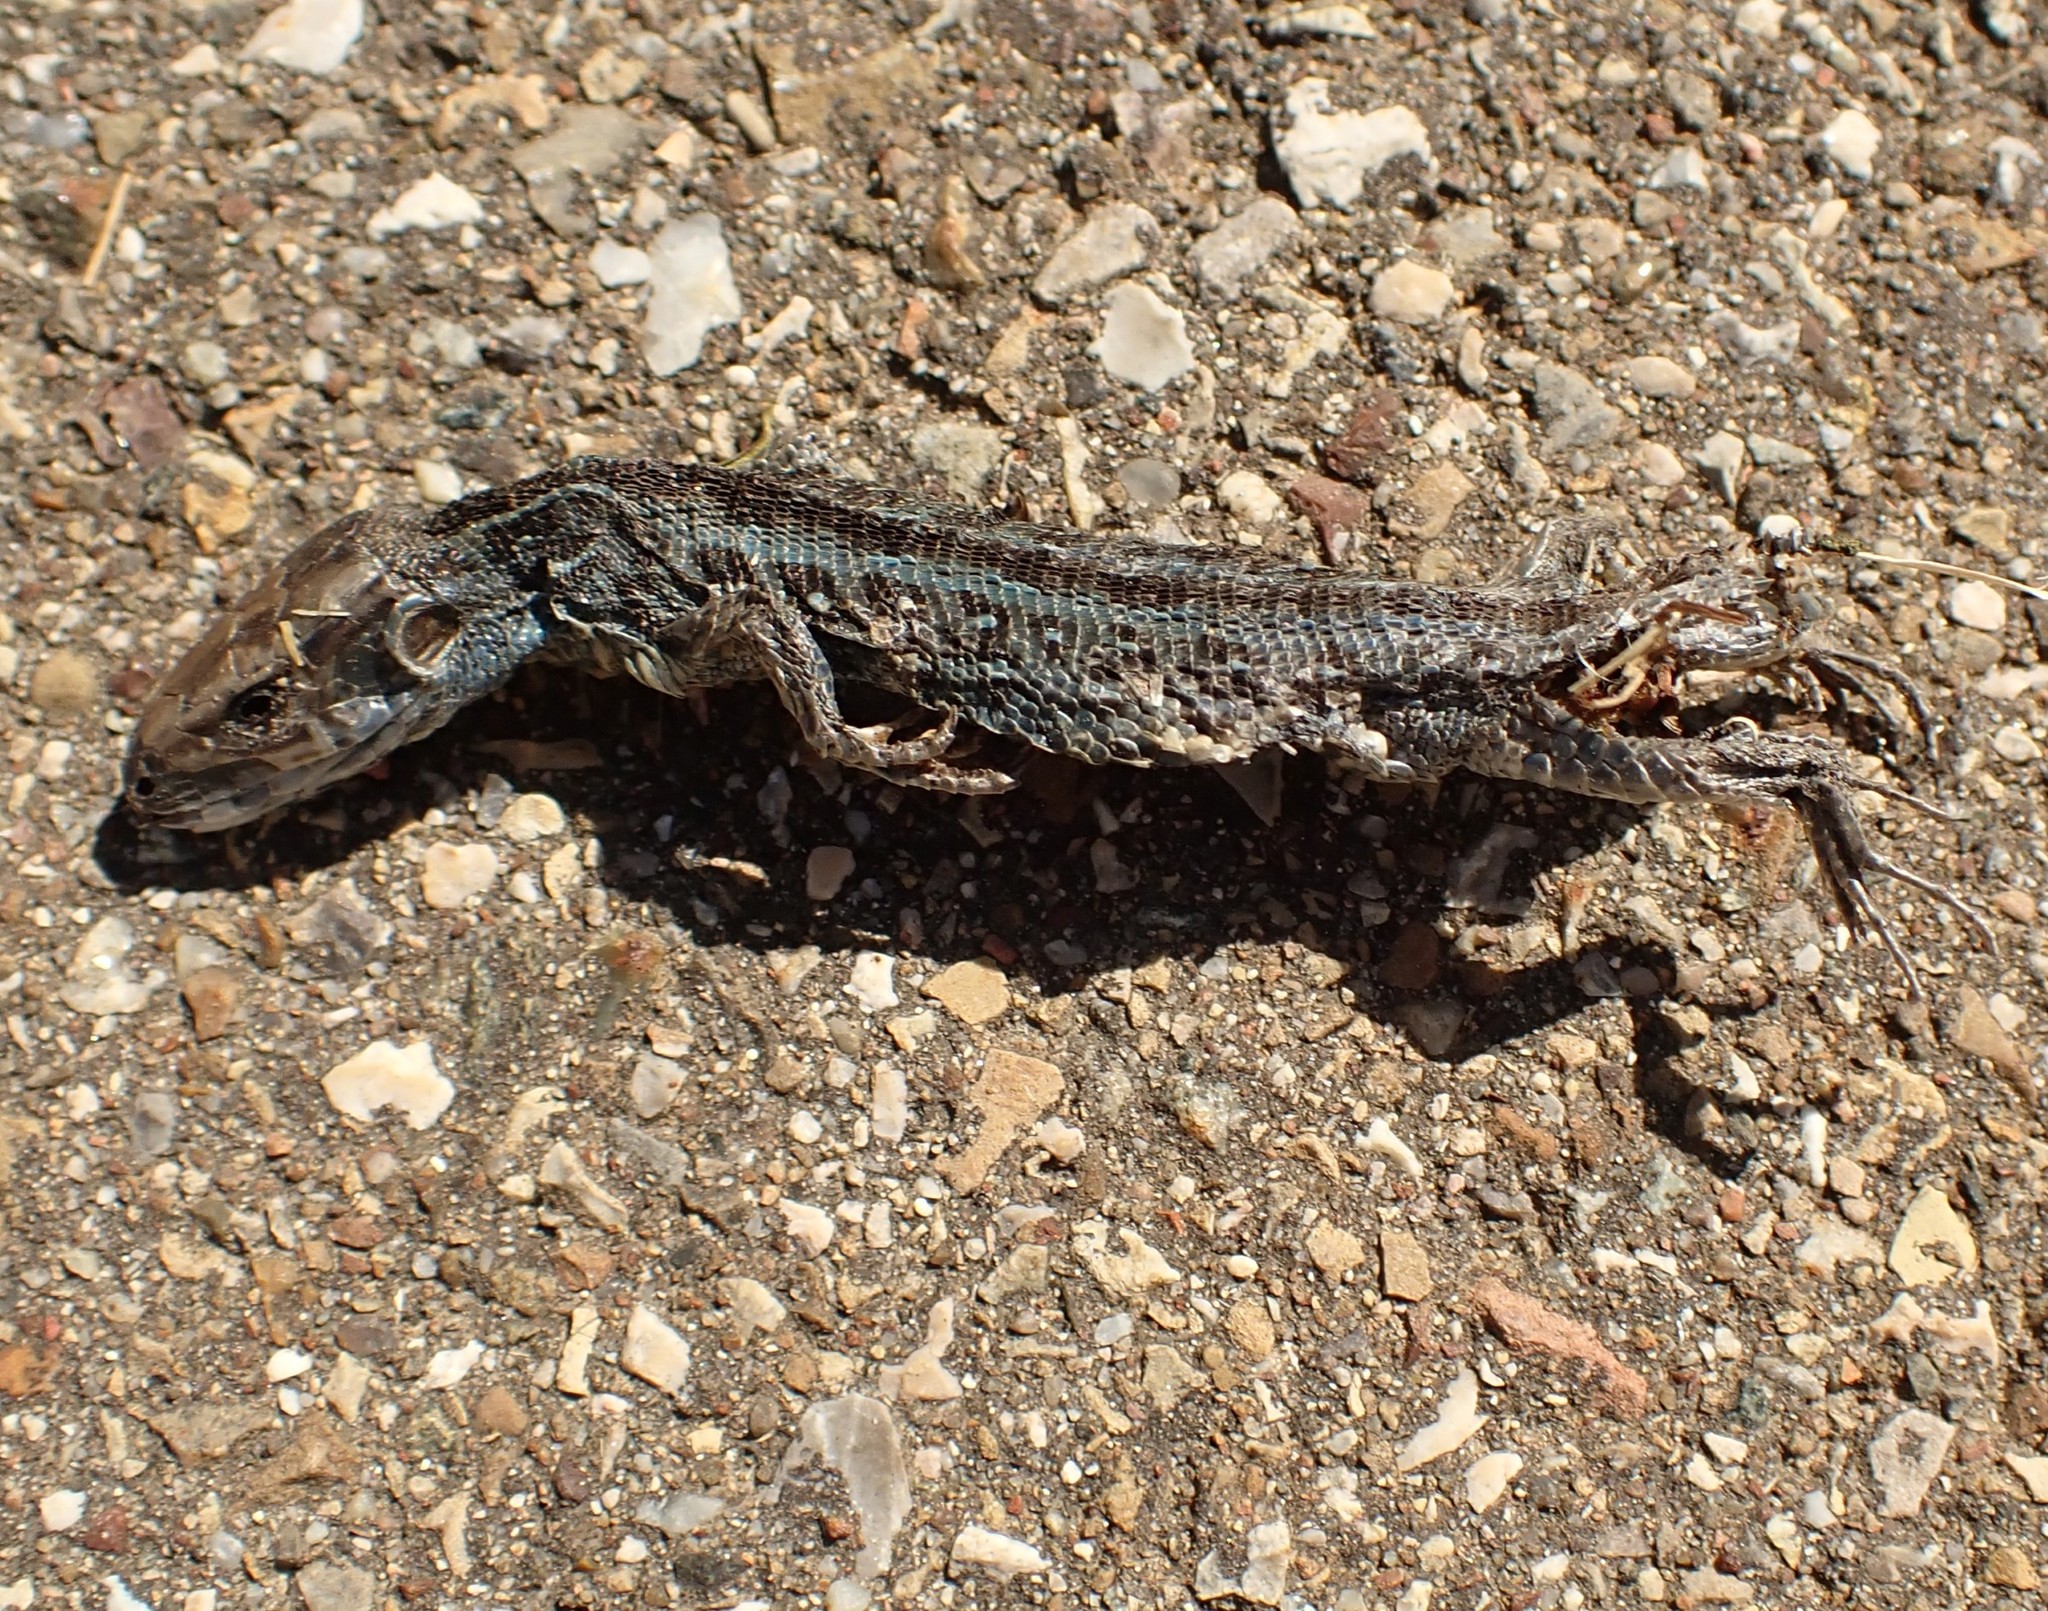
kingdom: Animalia
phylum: Chordata
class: Squamata
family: Lacertidae
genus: Lacerta
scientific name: Lacerta agilis
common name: Sand lizard
